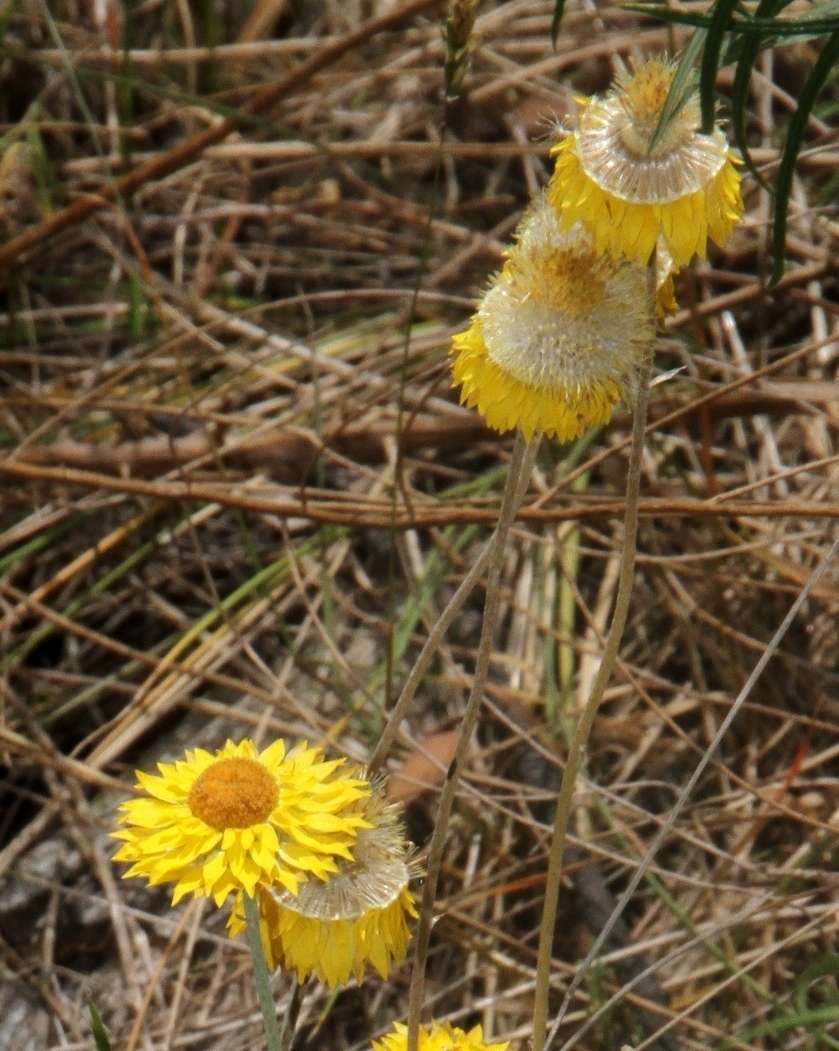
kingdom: Plantae
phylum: Tracheophyta
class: Magnoliopsida
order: Asterales
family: Asteraceae
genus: Leucochrysum
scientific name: Leucochrysum albicans
